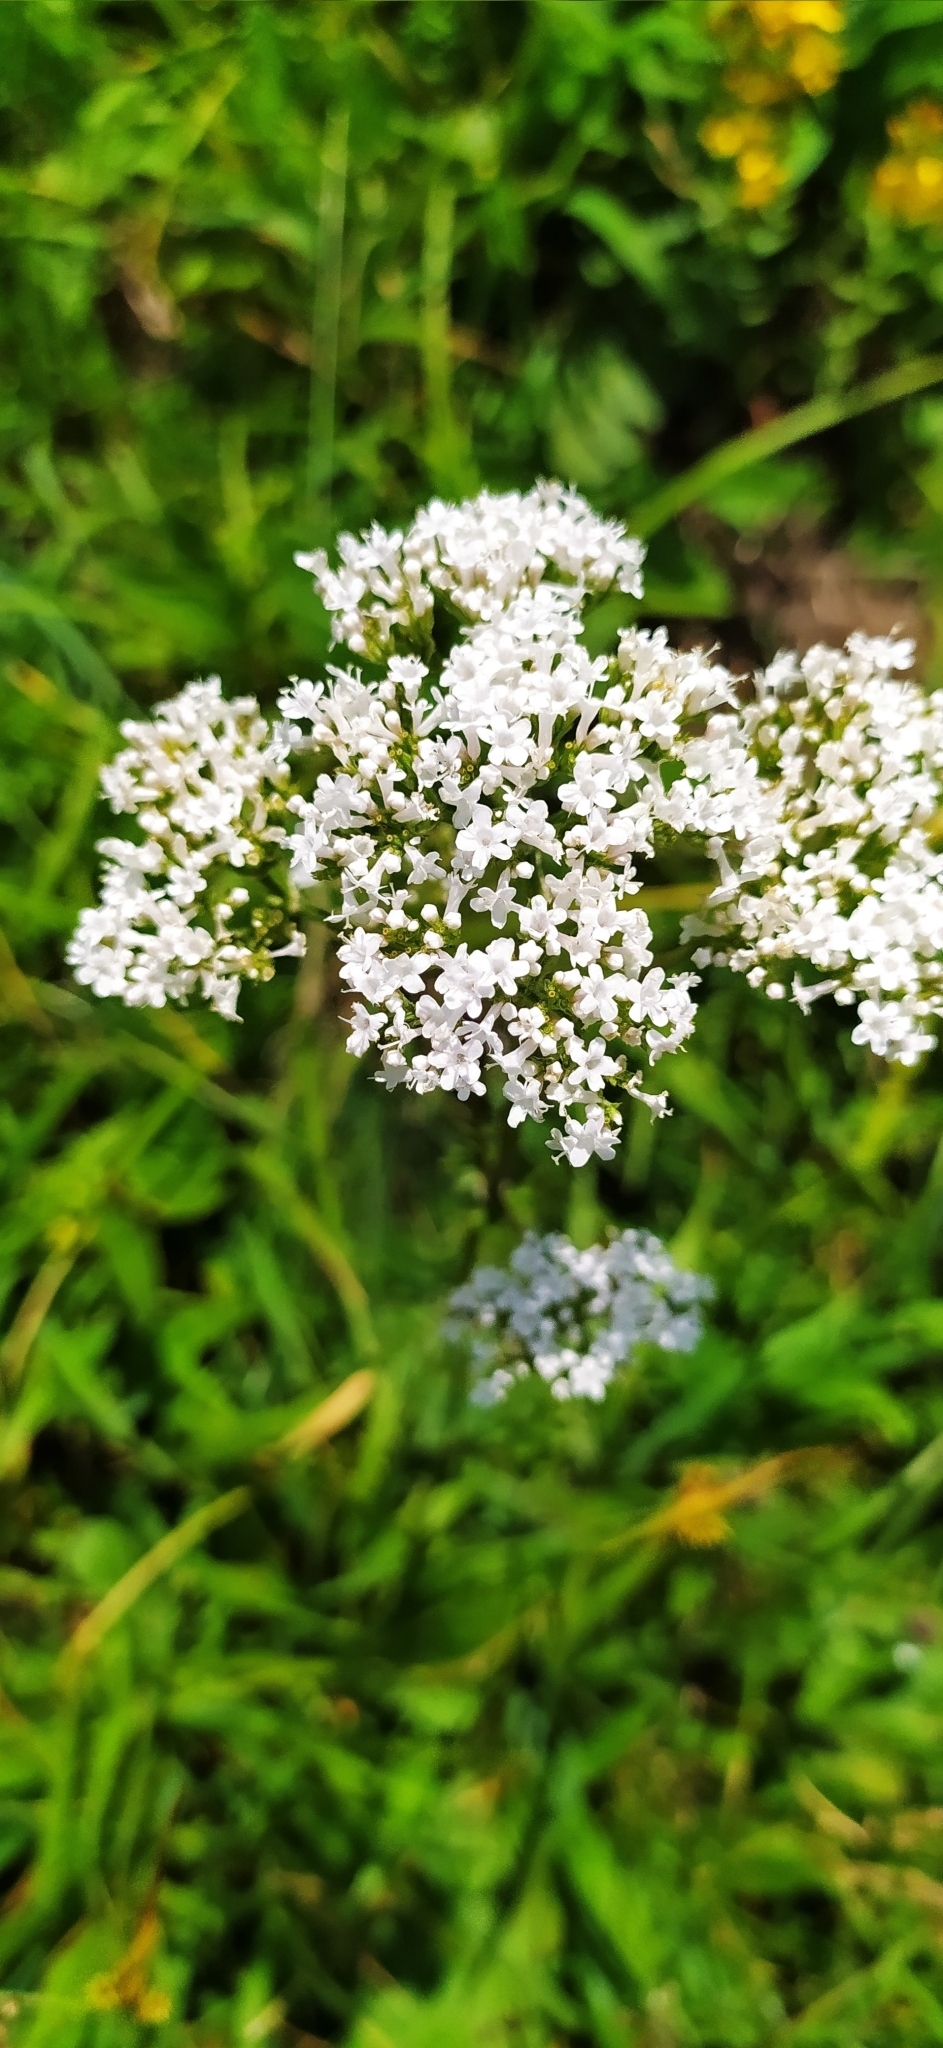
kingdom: Plantae
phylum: Tracheophyta
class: Magnoliopsida
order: Dipsacales
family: Caprifoliaceae
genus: Valeriana
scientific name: Valeriana grossheimii
